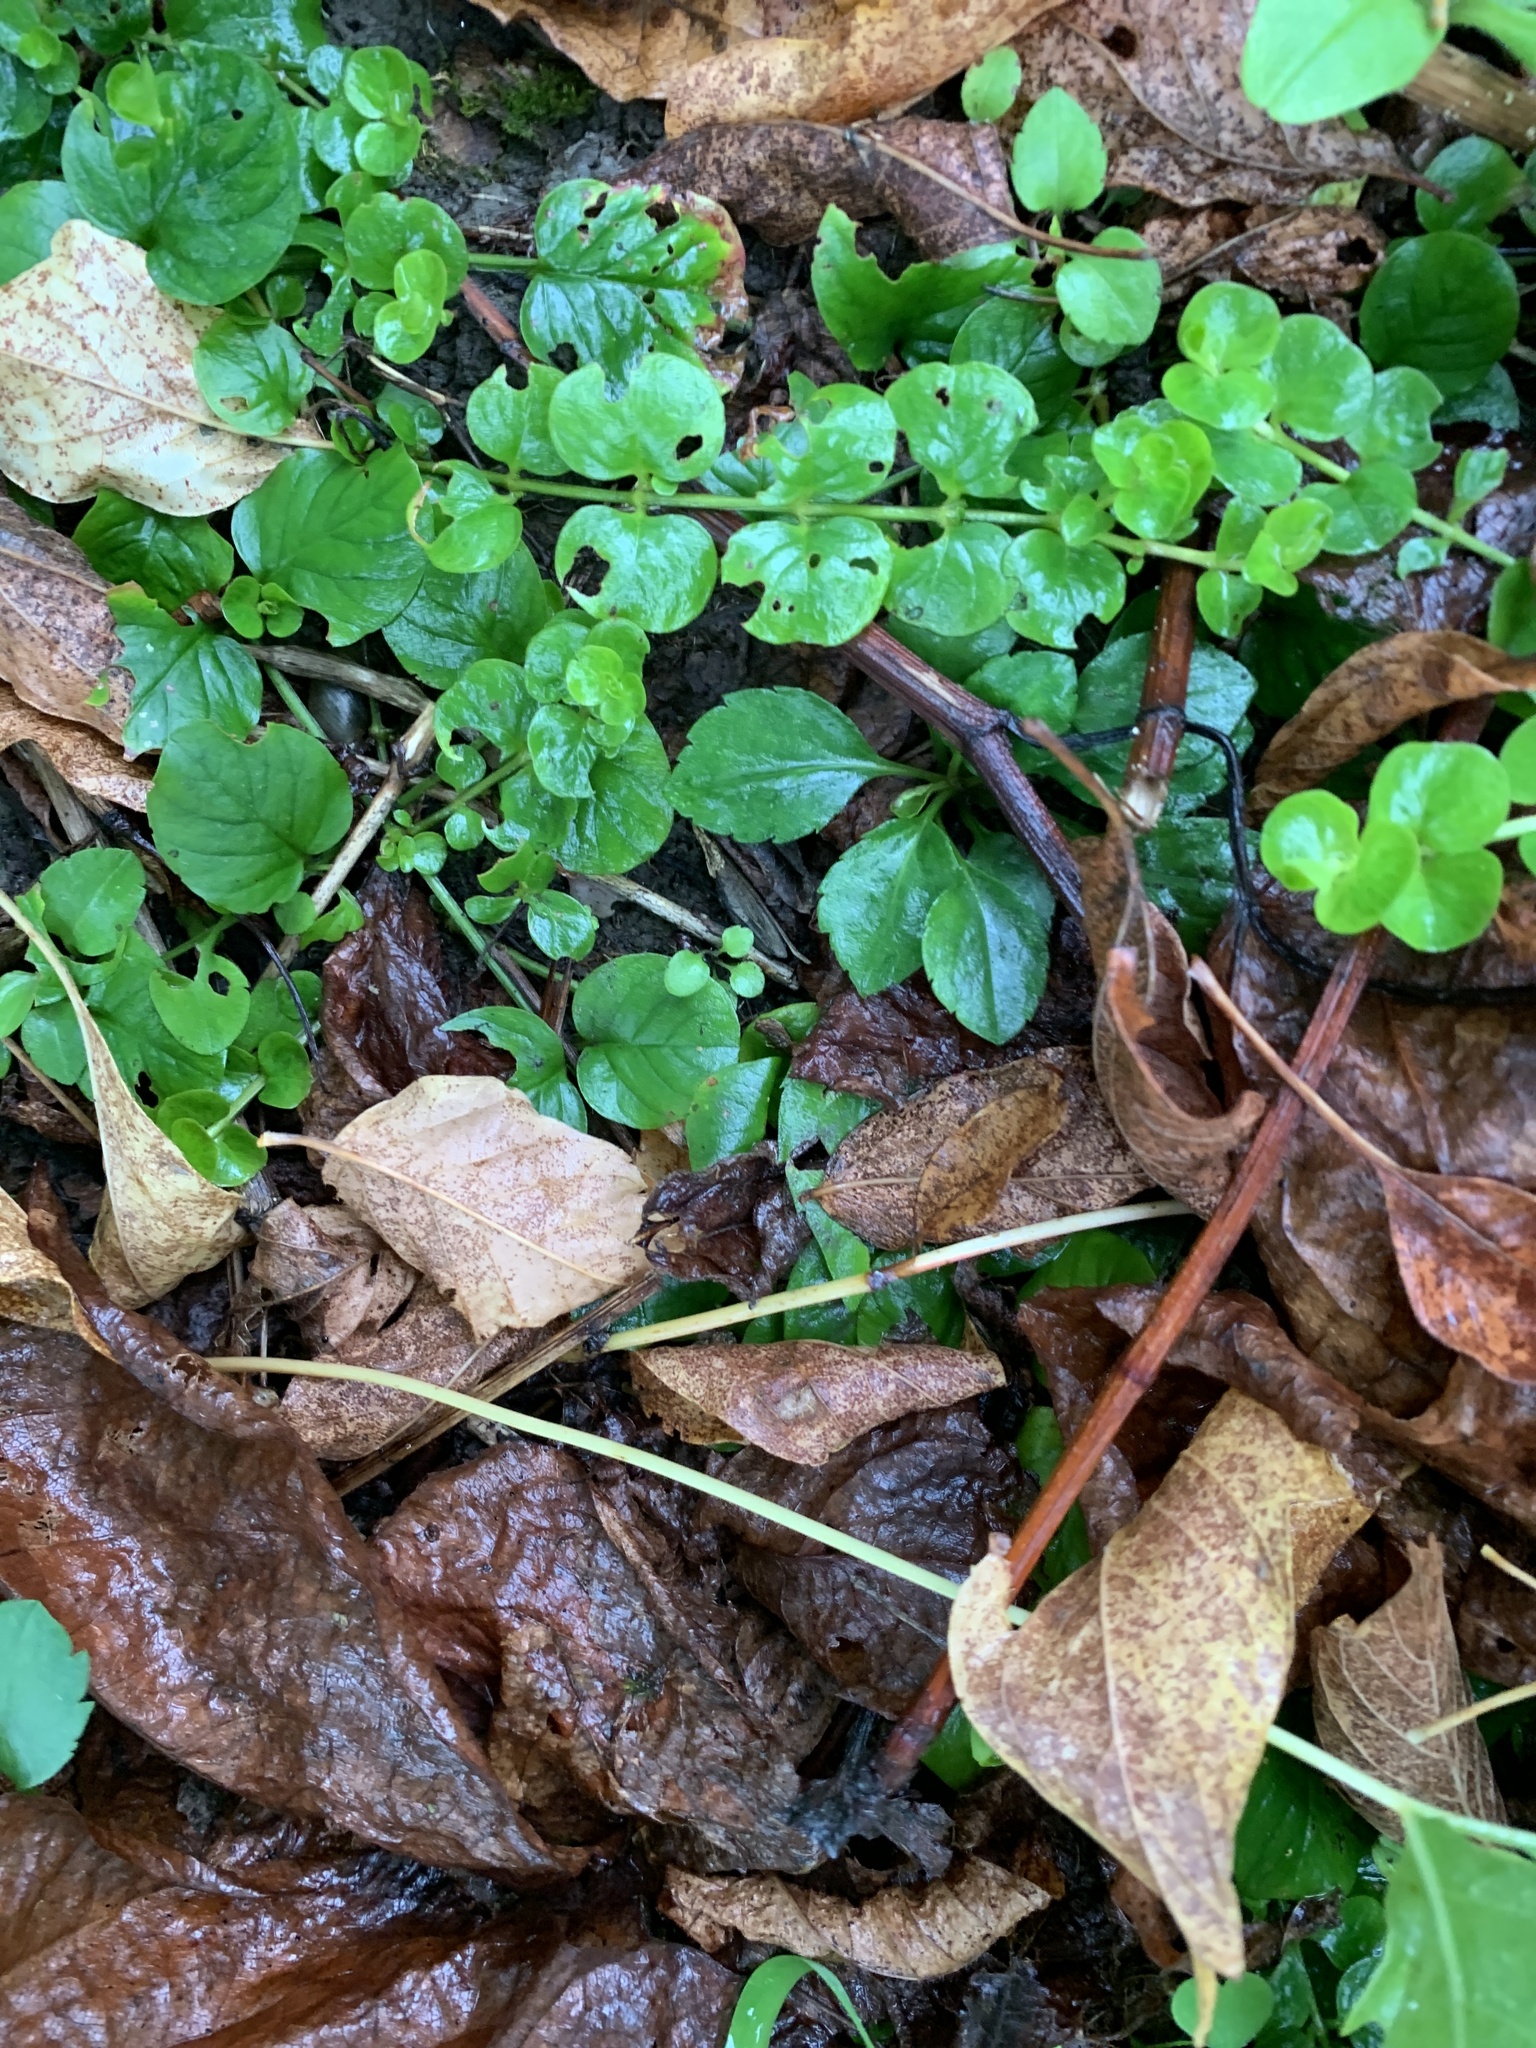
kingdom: Plantae
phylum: Tracheophyta
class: Magnoliopsida
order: Ericales
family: Primulaceae
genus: Lysimachia
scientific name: Lysimachia nummularia
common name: Moneywort
